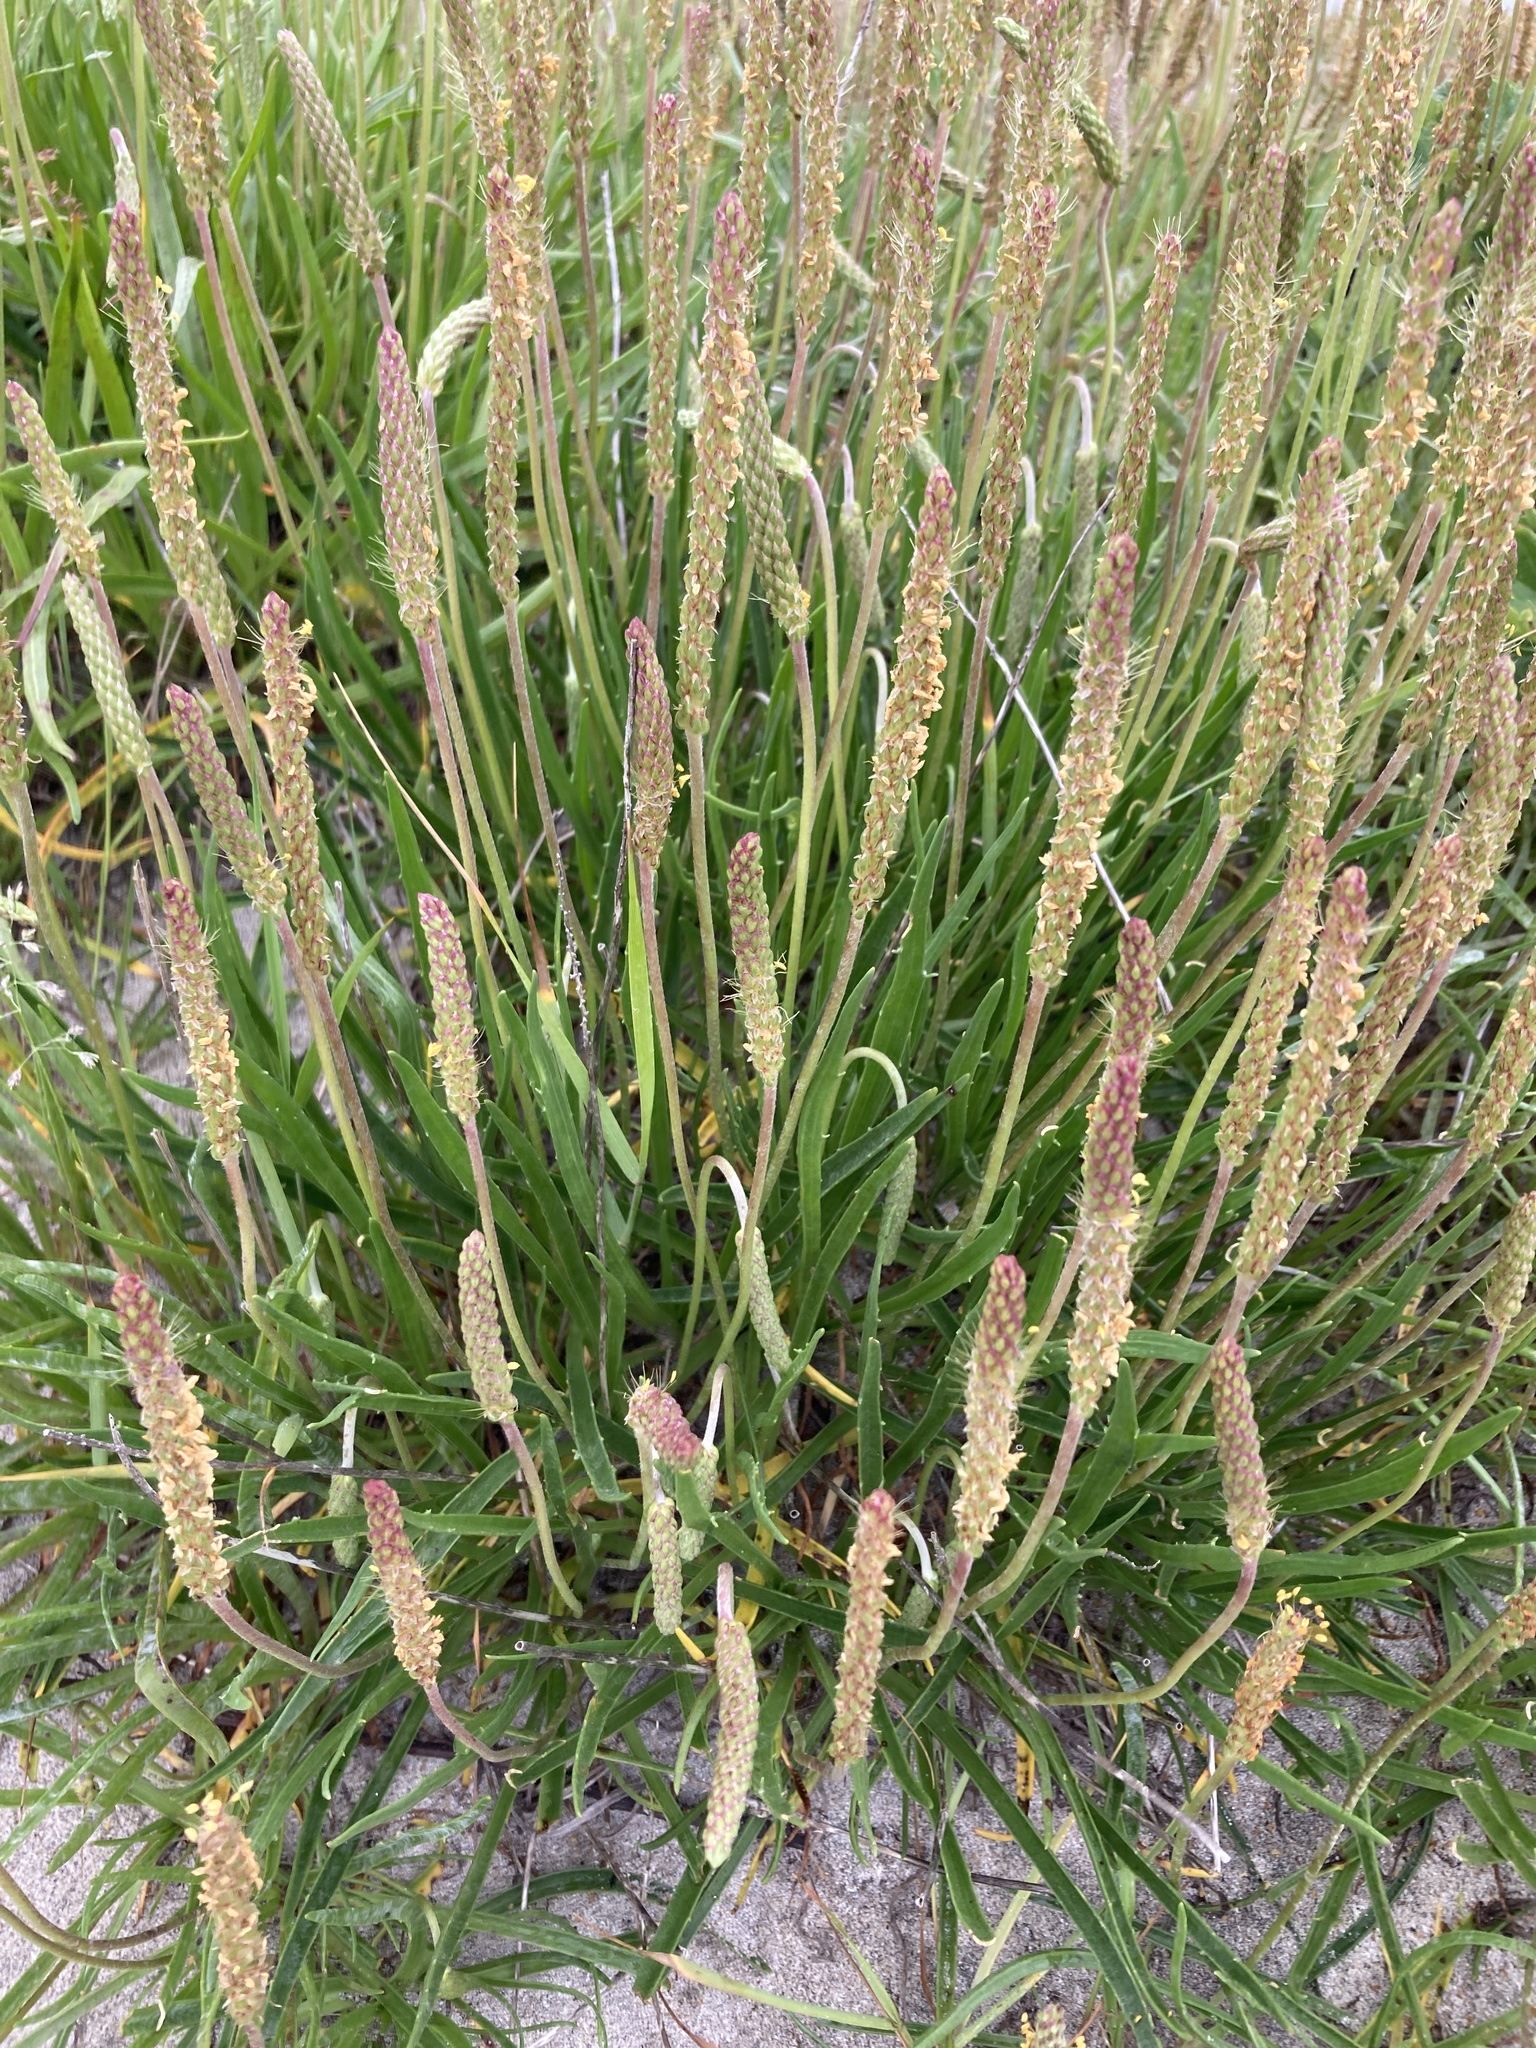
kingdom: Plantae
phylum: Tracheophyta
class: Magnoliopsida
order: Lamiales
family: Plantaginaceae
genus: Plantago
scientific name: Plantago maritima
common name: Sea plantain
